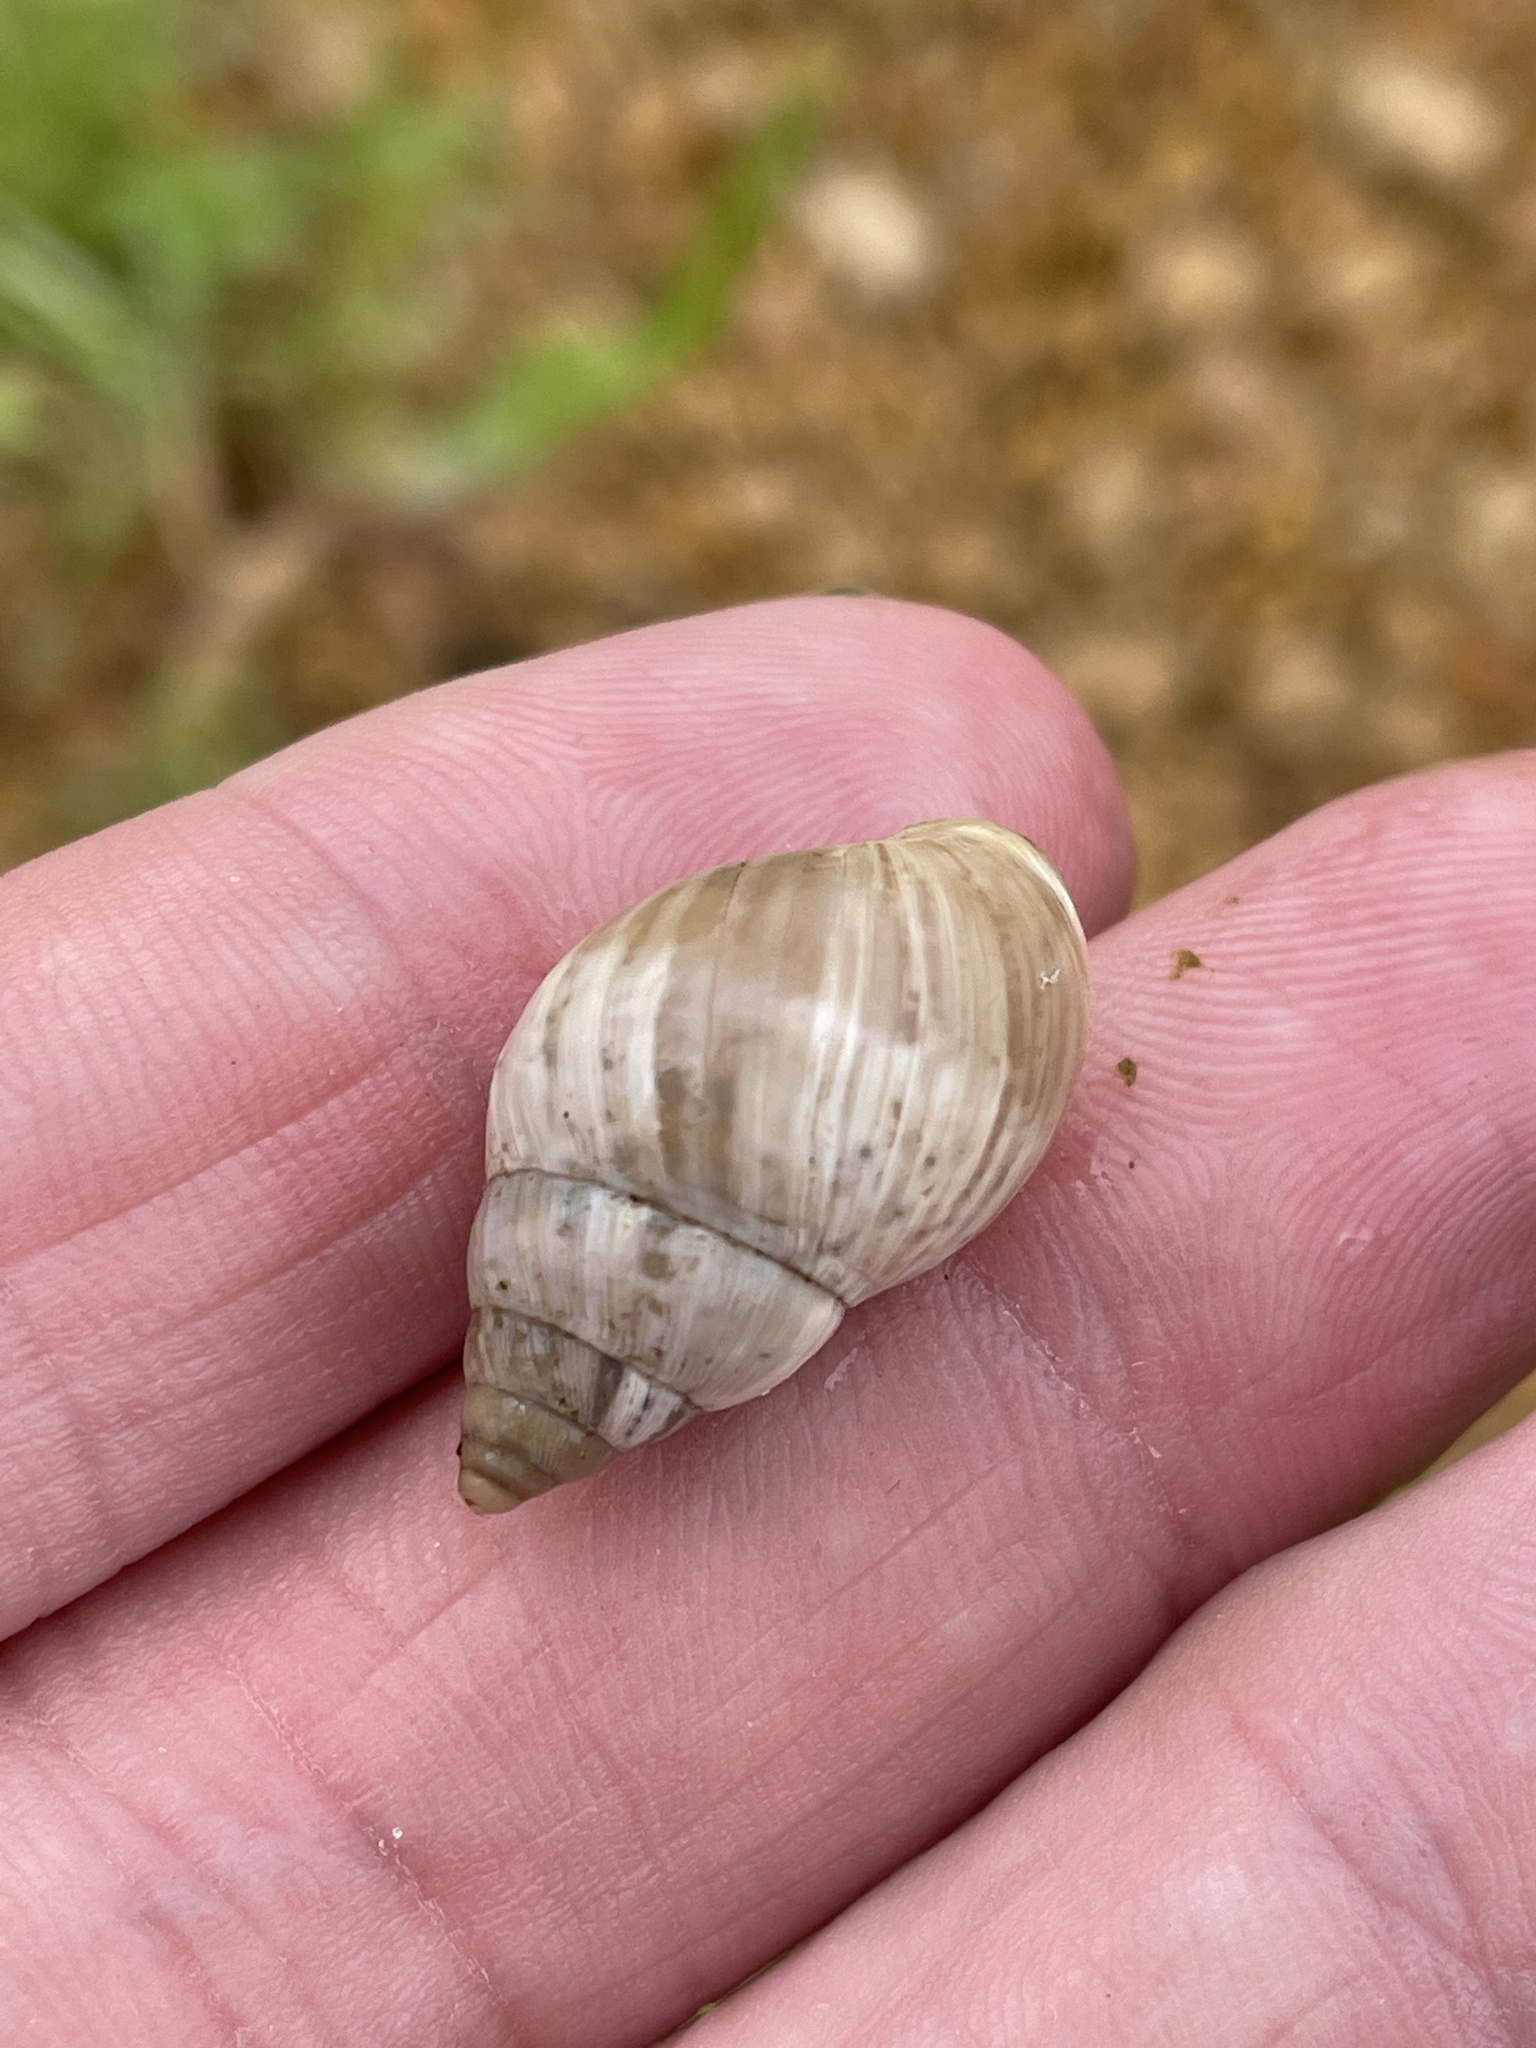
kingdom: Animalia
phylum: Mollusca
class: Gastropoda
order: Stylommatophora
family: Bulimulidae
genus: Rabdotus
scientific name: Rabdotus dealbatus
